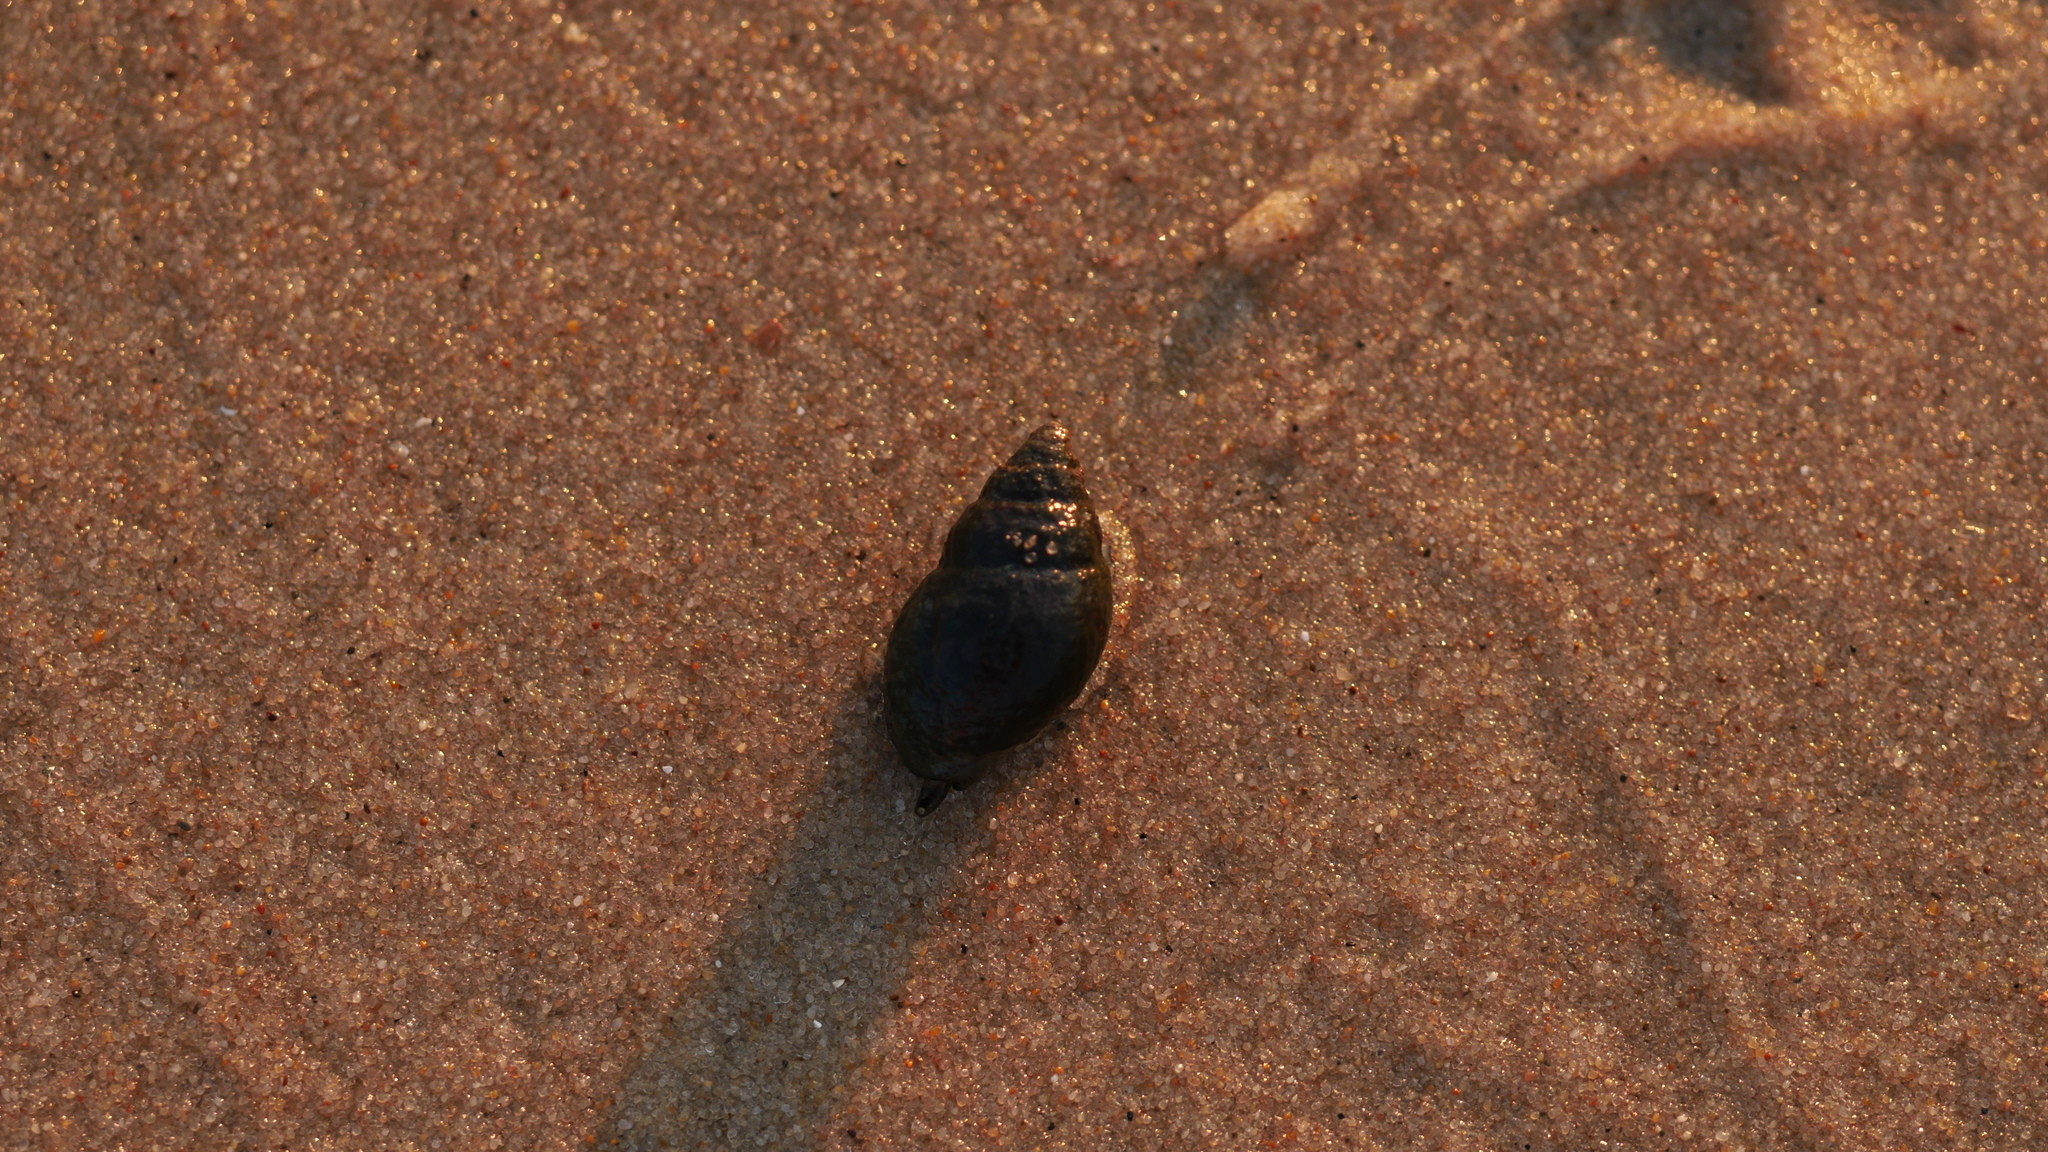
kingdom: Animalia
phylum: Mollusca
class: Gastropoda
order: Neogastropoda
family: Nassariidae
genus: Ilyanassa
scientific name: Ilyanassa obsoleta
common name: Eastern mudsnail
